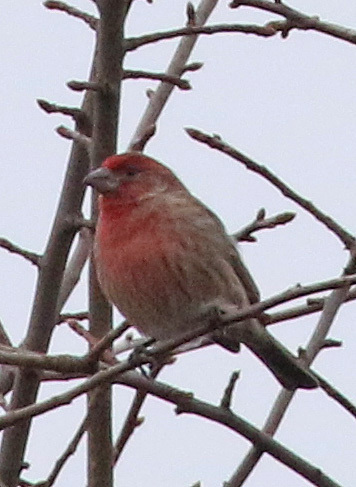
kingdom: Animalia
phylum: Chordata
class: Aves
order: Passeriformes
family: Fringillidae
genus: Haemorhous
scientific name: Haemorhous mexicanus
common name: House finch
